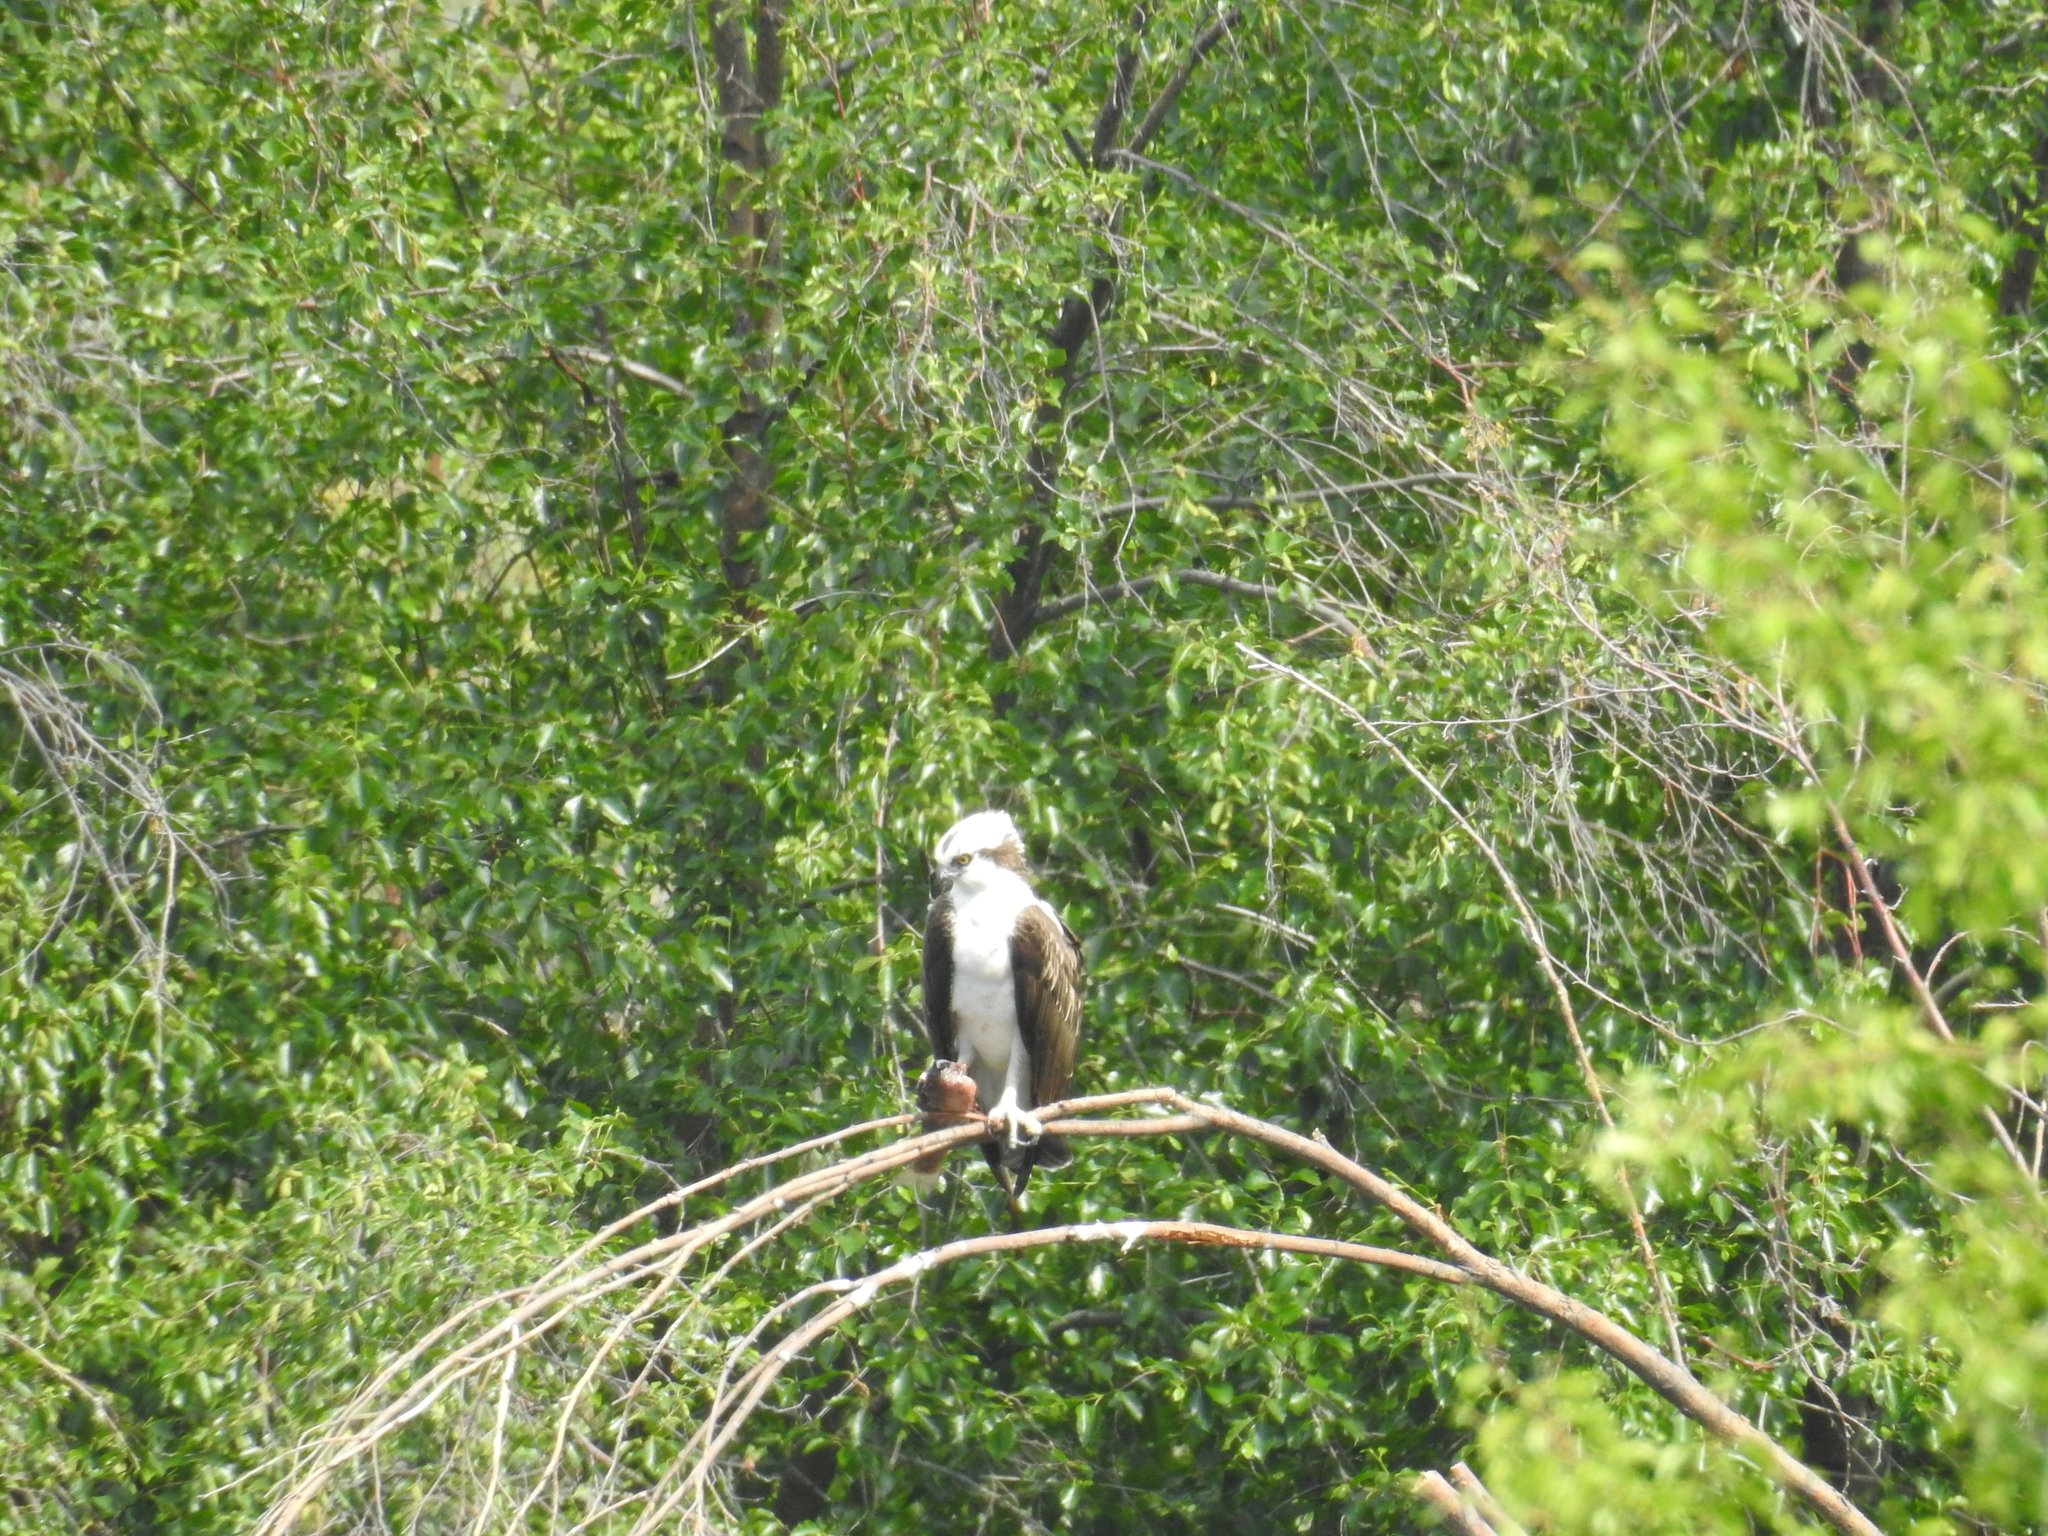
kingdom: Animalia
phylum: Chordata
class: Aves
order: Accipitriformes
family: Pandionidae
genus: Pandion
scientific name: Pandion haliaetus
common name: Osprey
